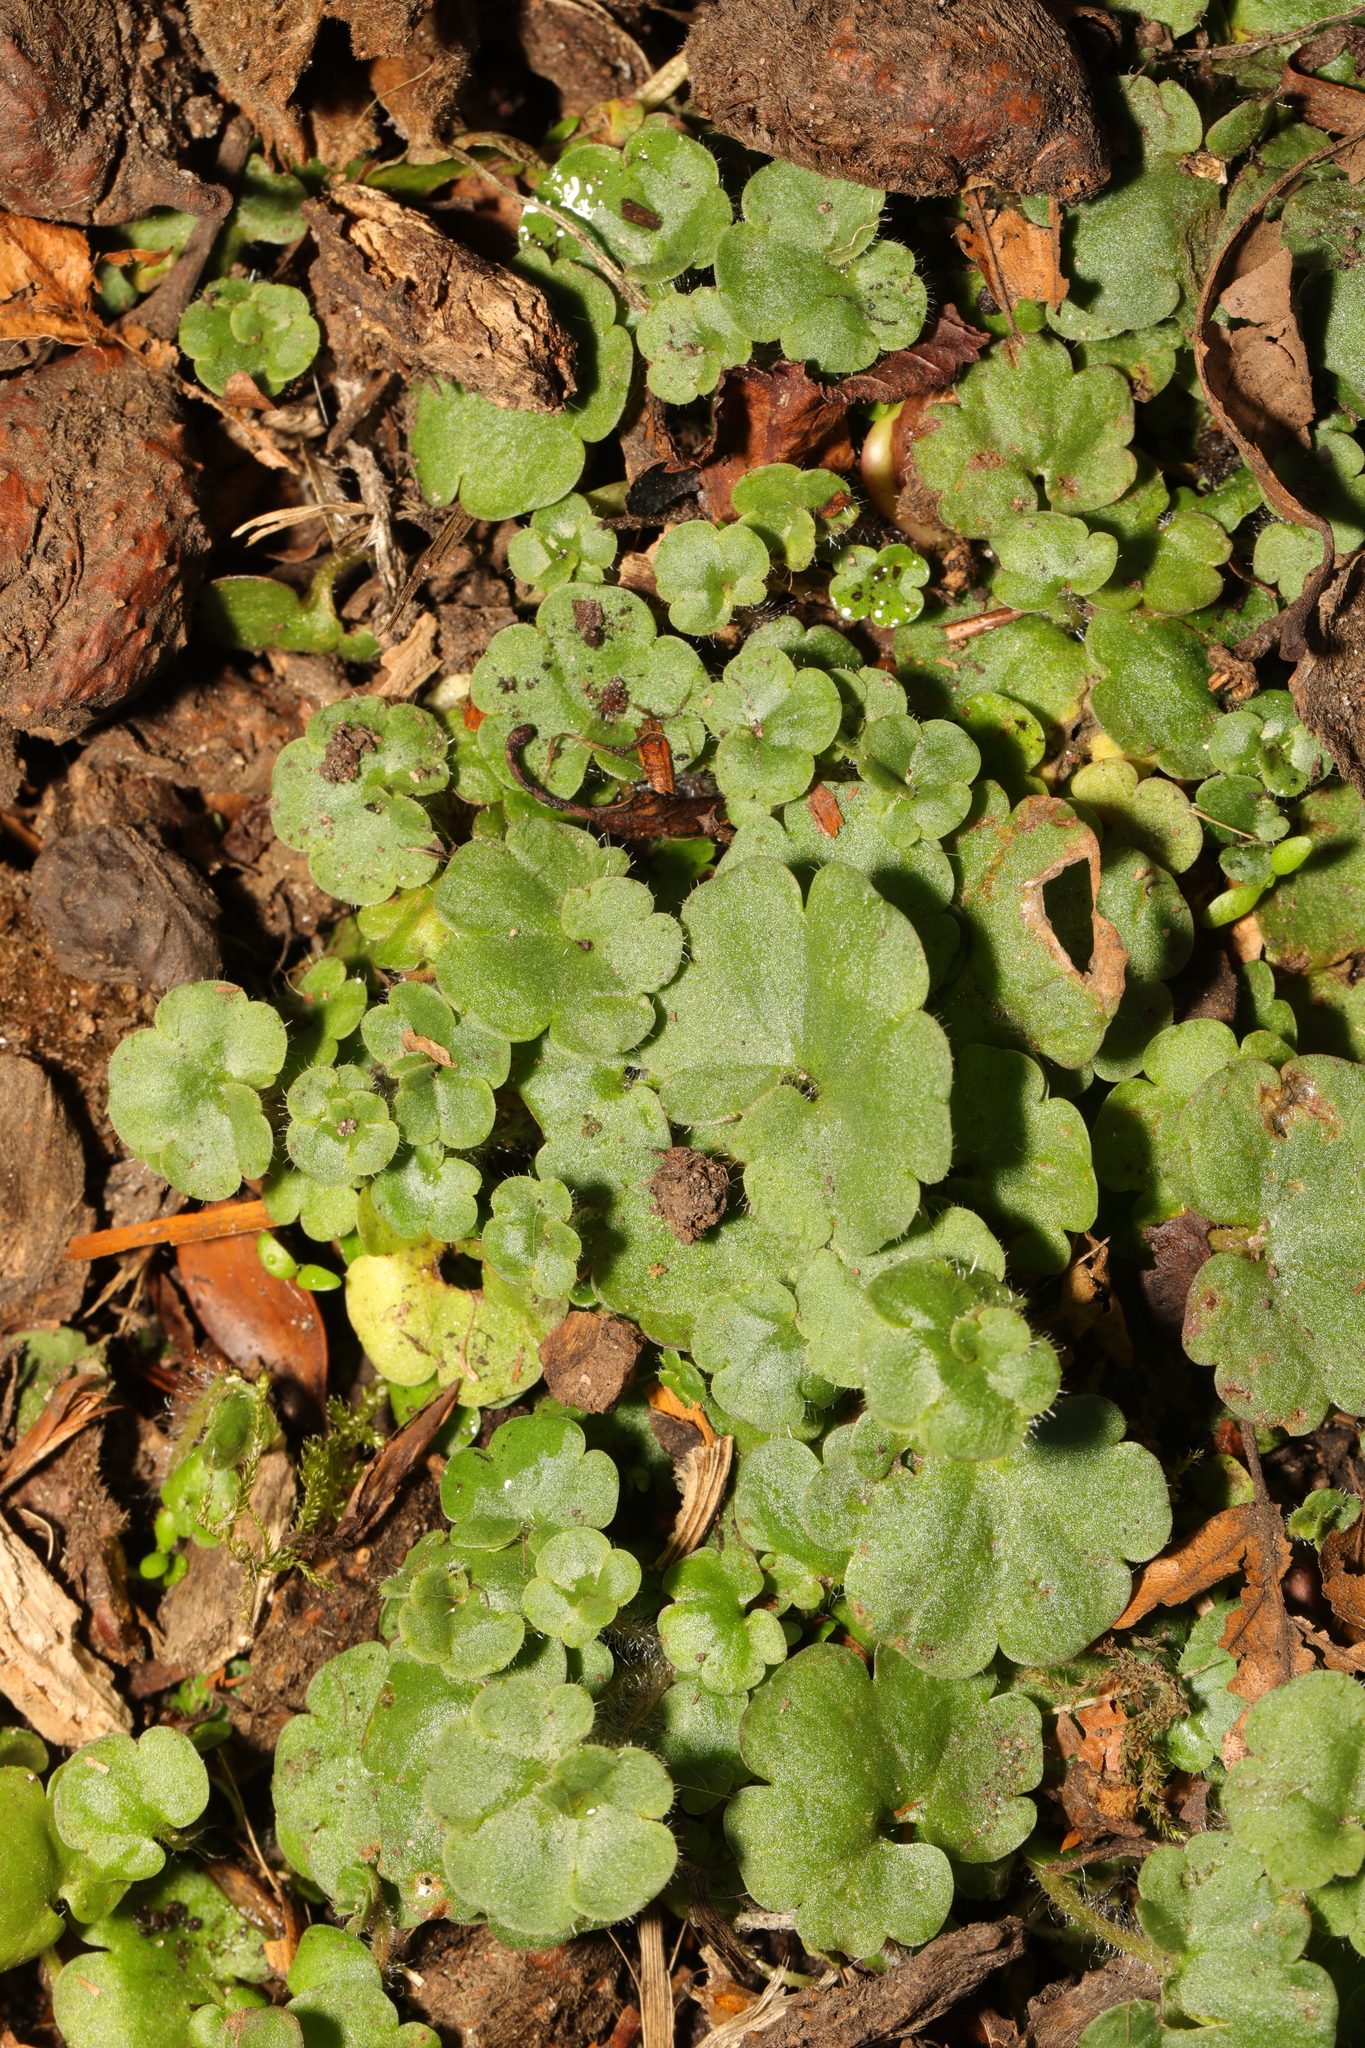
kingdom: Plantae
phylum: Tracheophyta
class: Magnoliopsida
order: Lamiales
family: Plantaginaceae
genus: Cymbalaria
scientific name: Cymbalaria muralis
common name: Ivy-leaved toadflax
